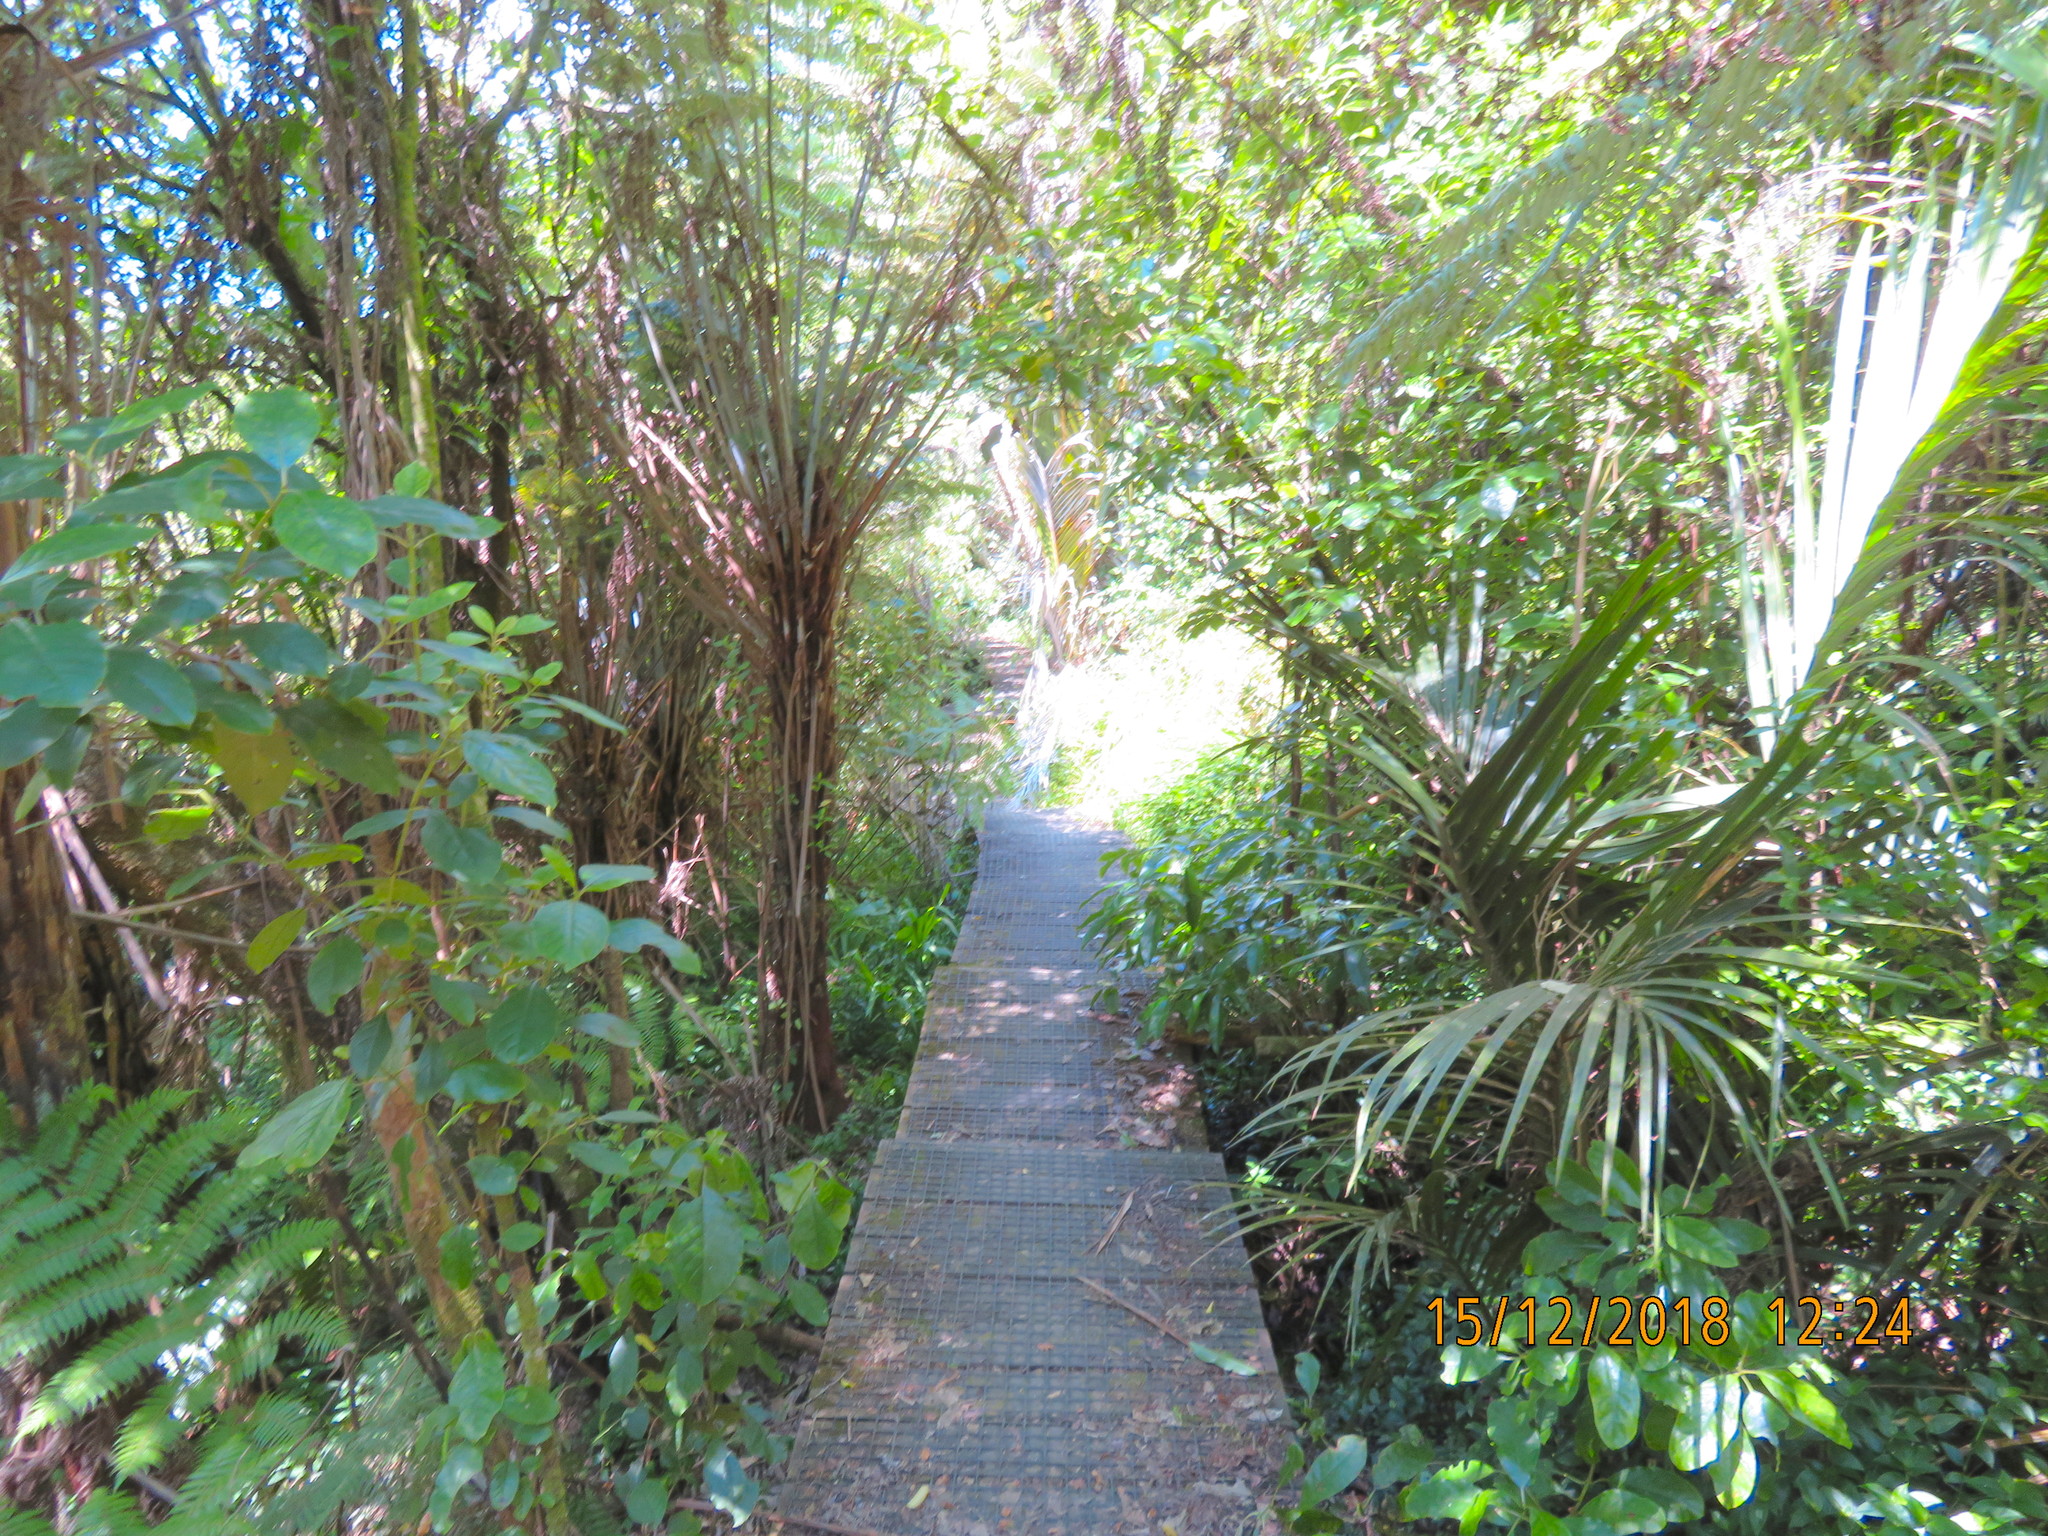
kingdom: Plantae
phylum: Tracheophyta
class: Polypodiopsida
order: Cyatheales
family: Cyatheaceae
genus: Alsophila
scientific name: Alsophila dealbata
